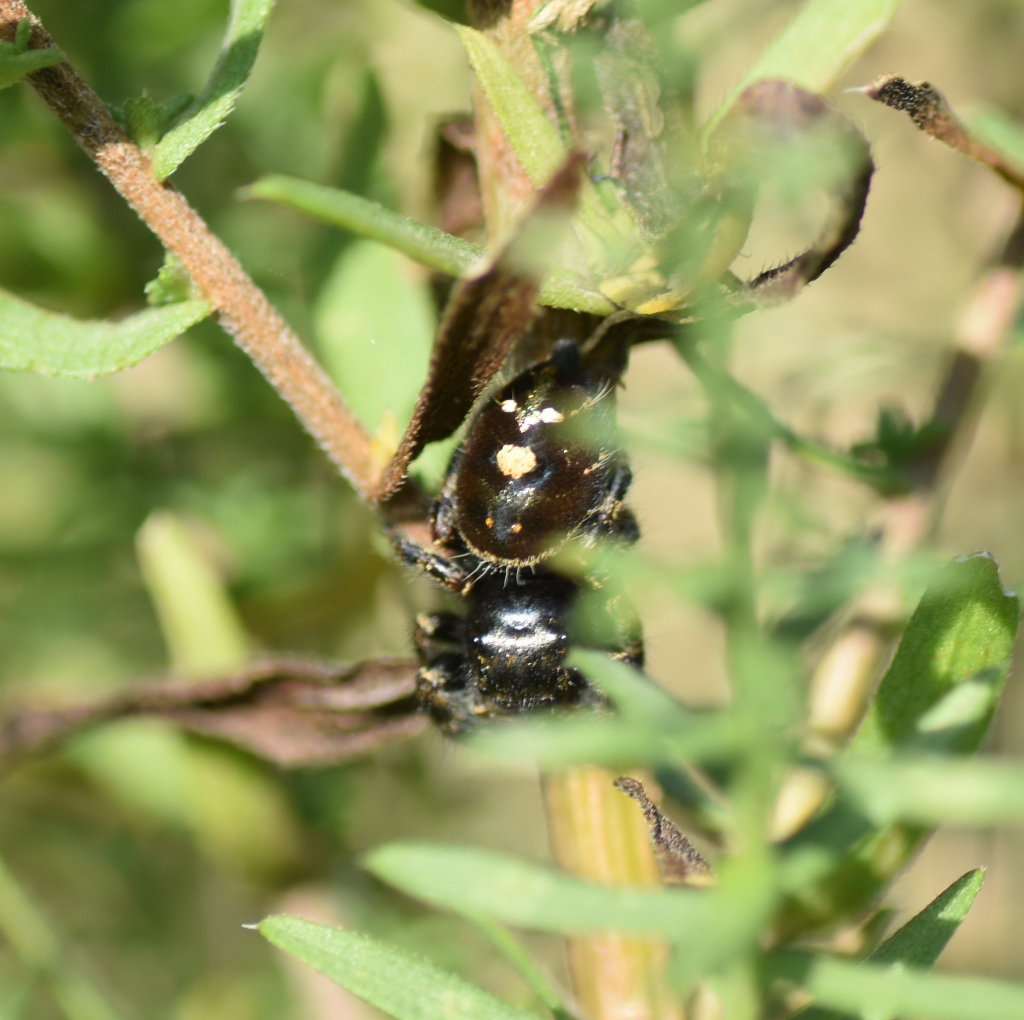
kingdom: Animalia
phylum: Arthropoda
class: Arachnida
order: Araneae
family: Salticidae
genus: Phidippus
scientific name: Phidippus audax
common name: Bold jumper
